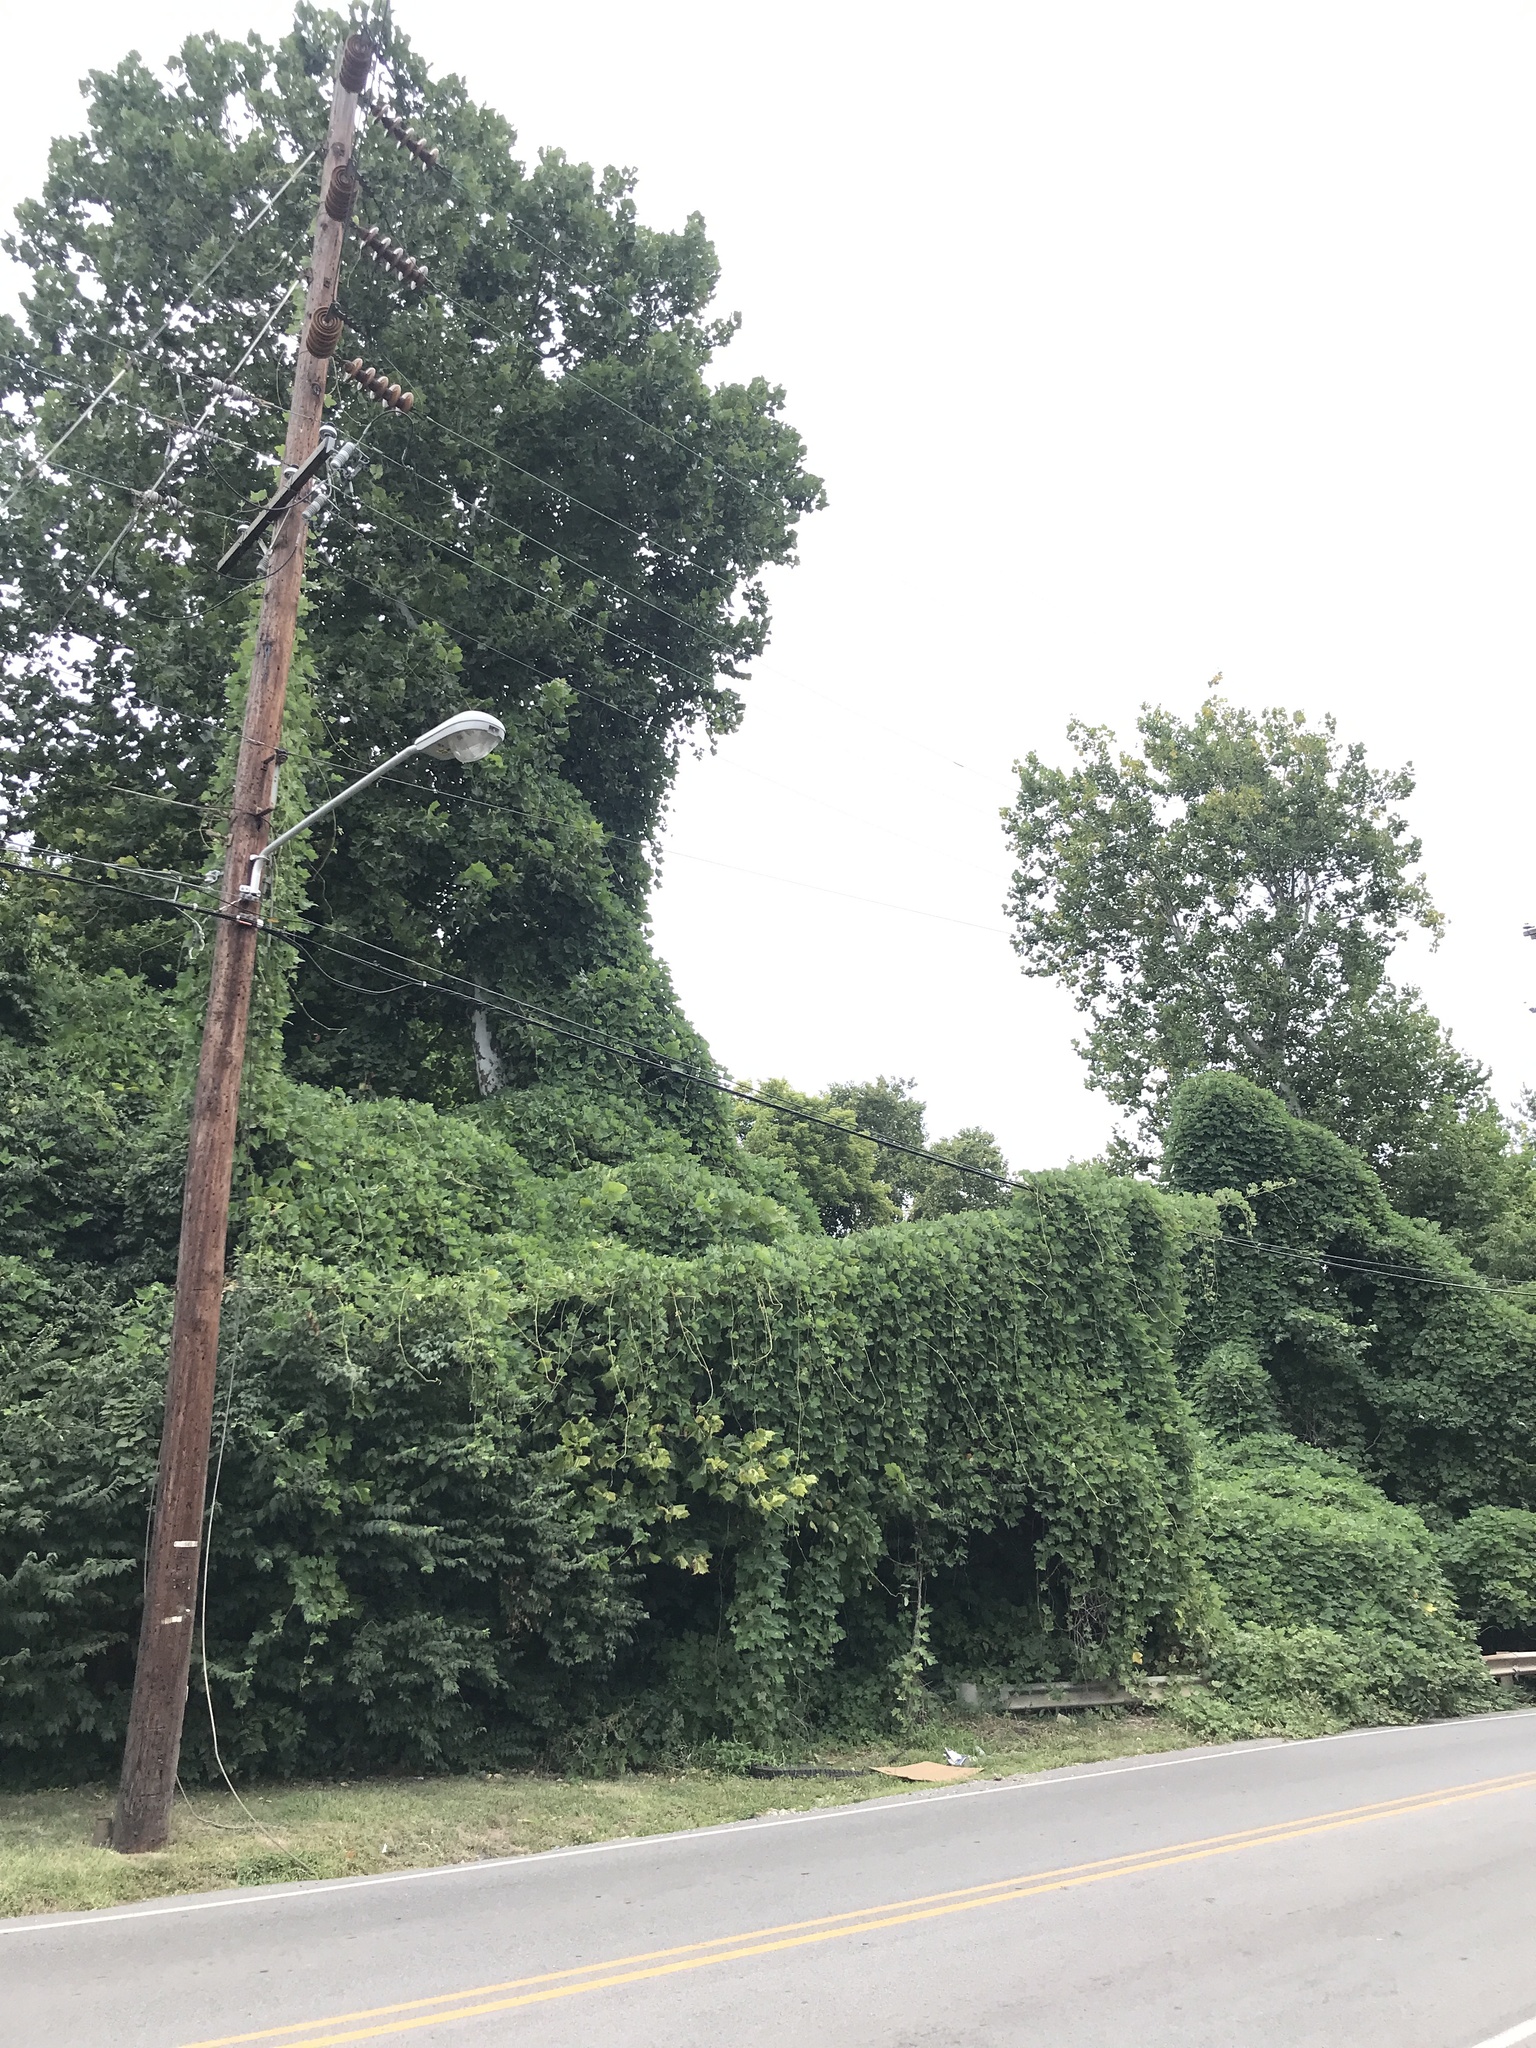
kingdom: Plantae
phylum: Tracheophyta
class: Magnoliopsida
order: Fabales
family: Fabaceae
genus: Pueraria
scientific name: Pueraria montana
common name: Kudzu
